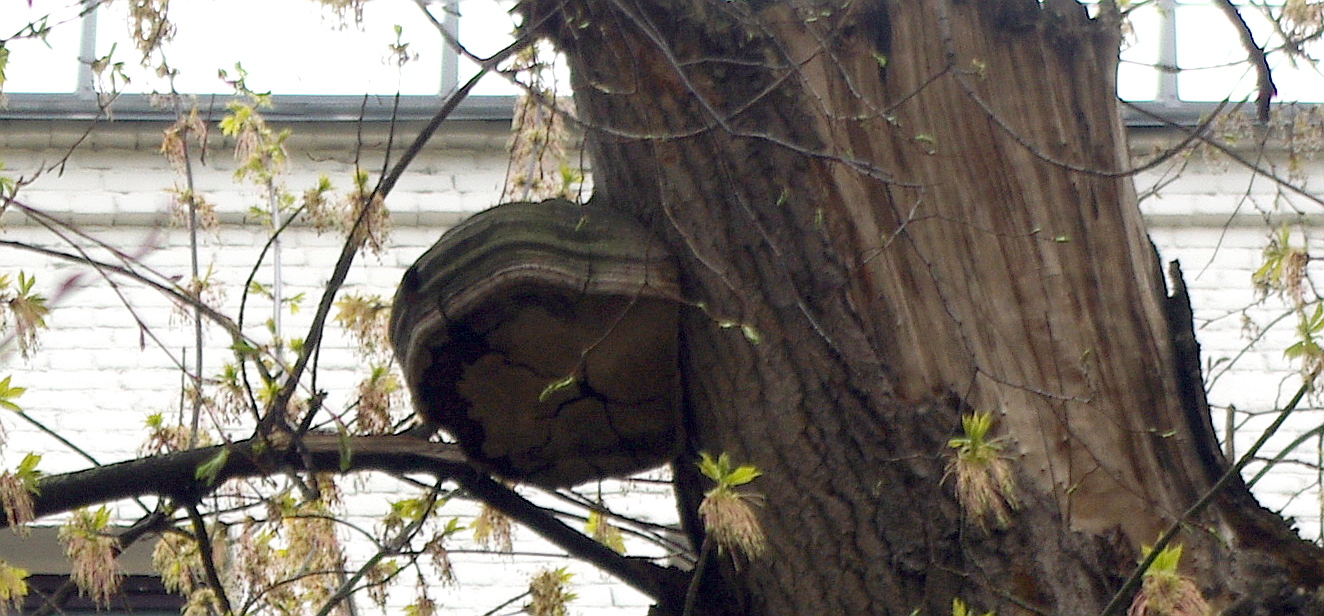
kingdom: Fungi
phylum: Basidiomycota
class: Agaricomycetes
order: Polyporales
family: Polyporaceae
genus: Fomes
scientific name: Fomes fomentarius
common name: Hoof fungus
